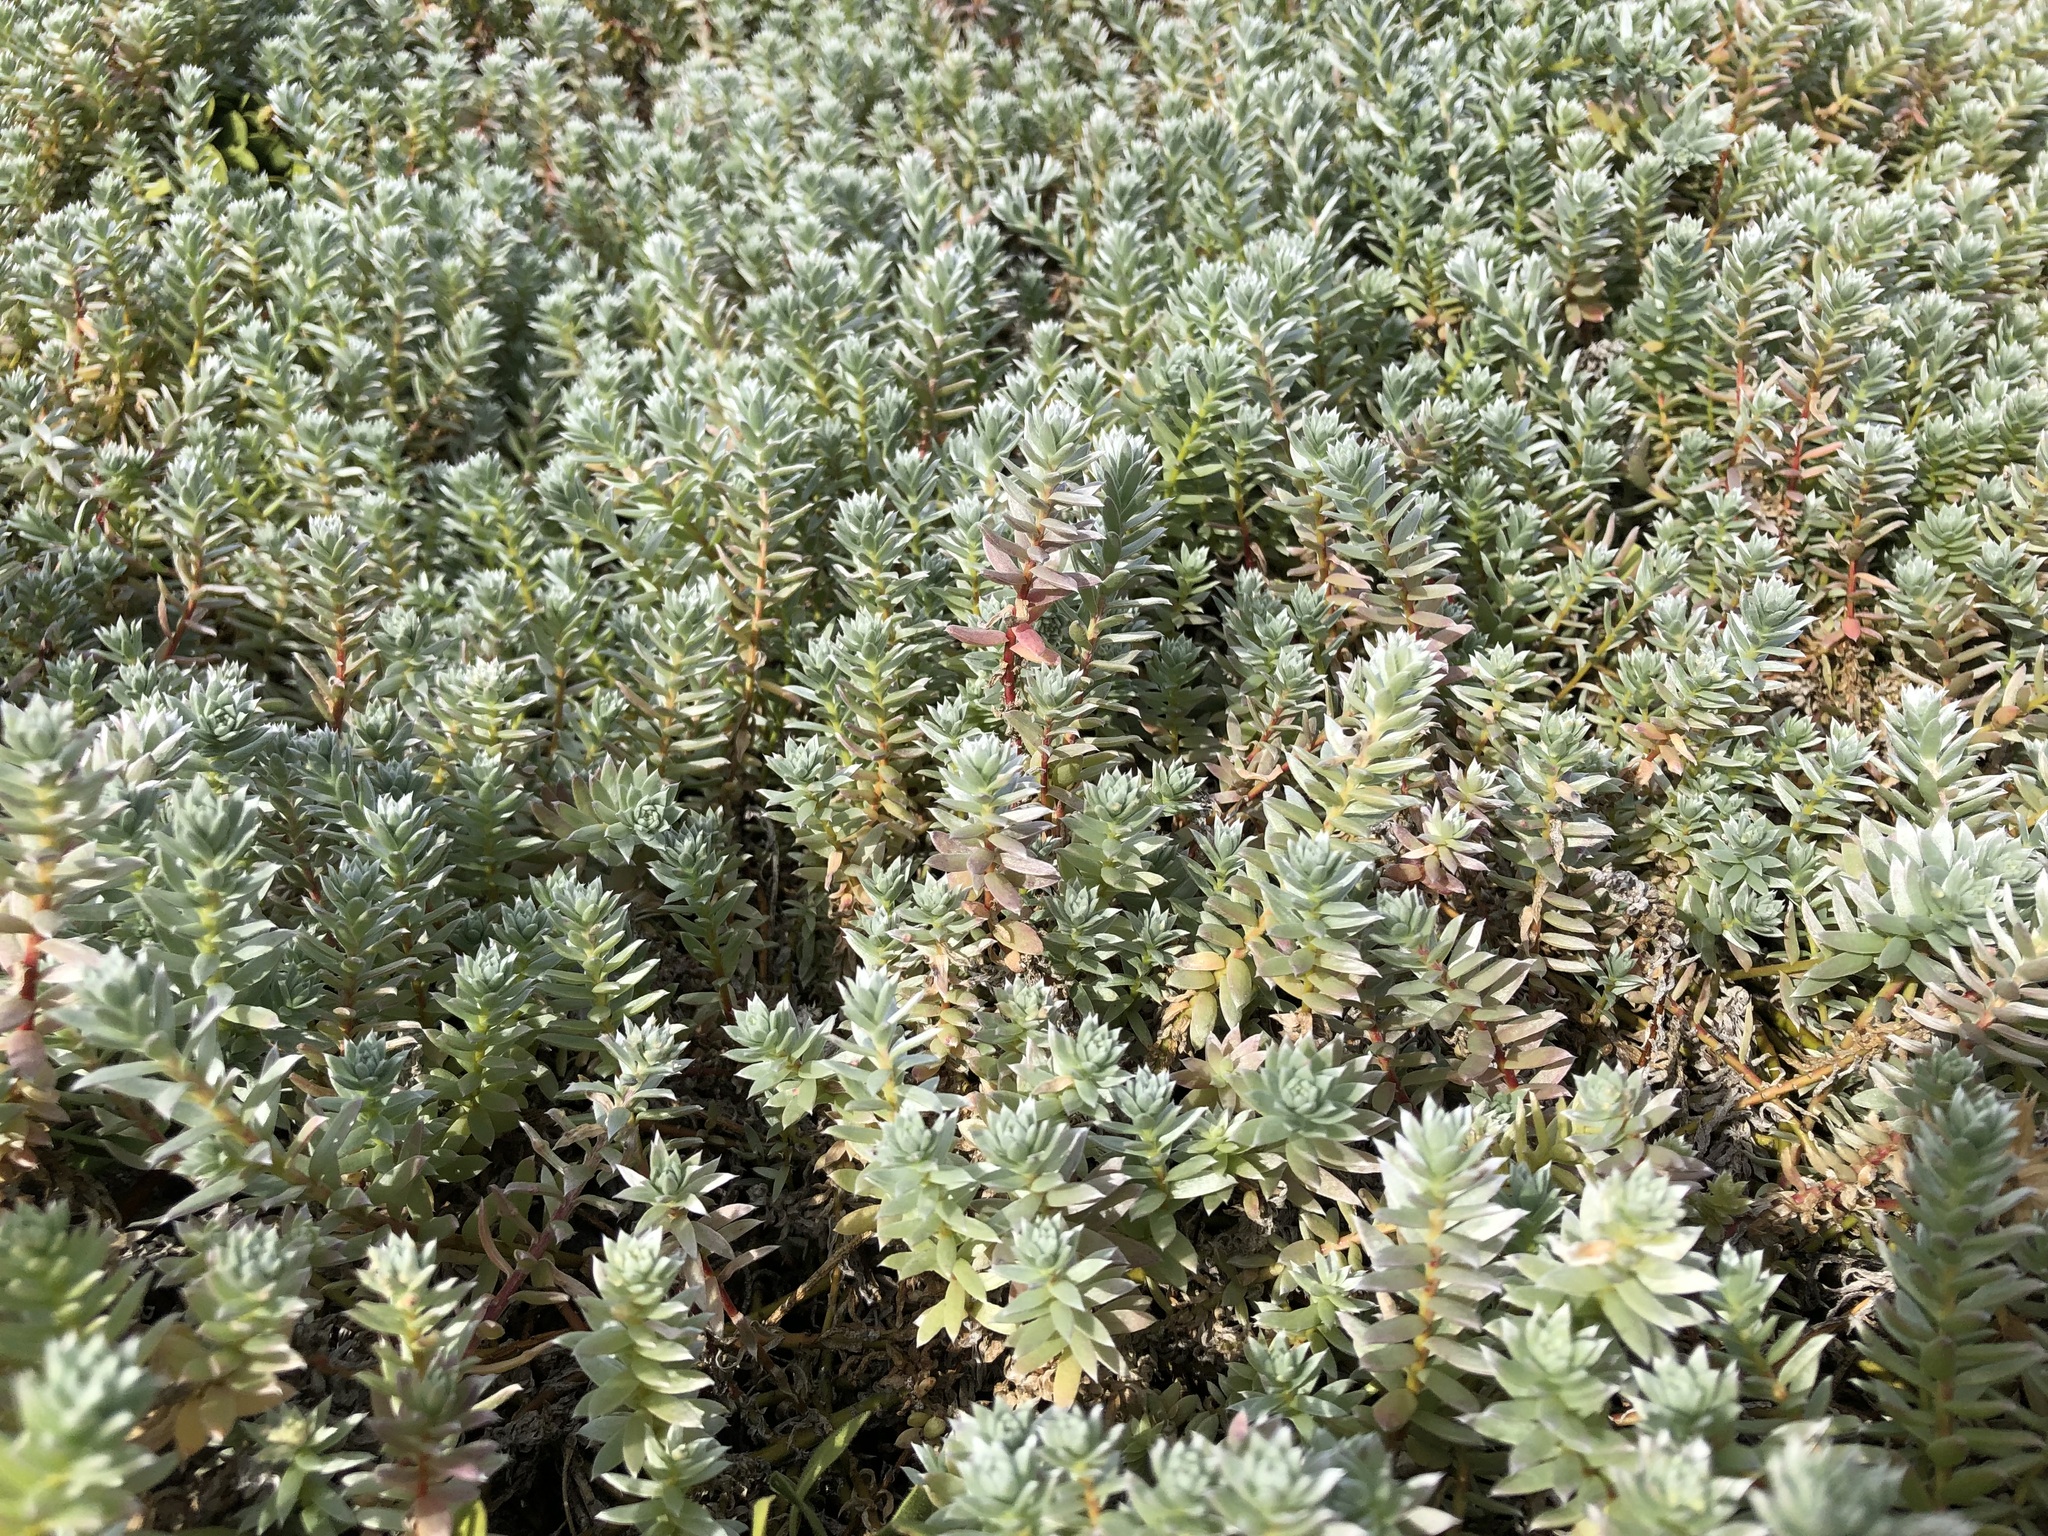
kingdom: Plantae
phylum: Tracheophyta
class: Magnoliopsida
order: Caryophyllales
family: Amaranthaceae
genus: Chenolea
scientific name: Chenolea diffusa
